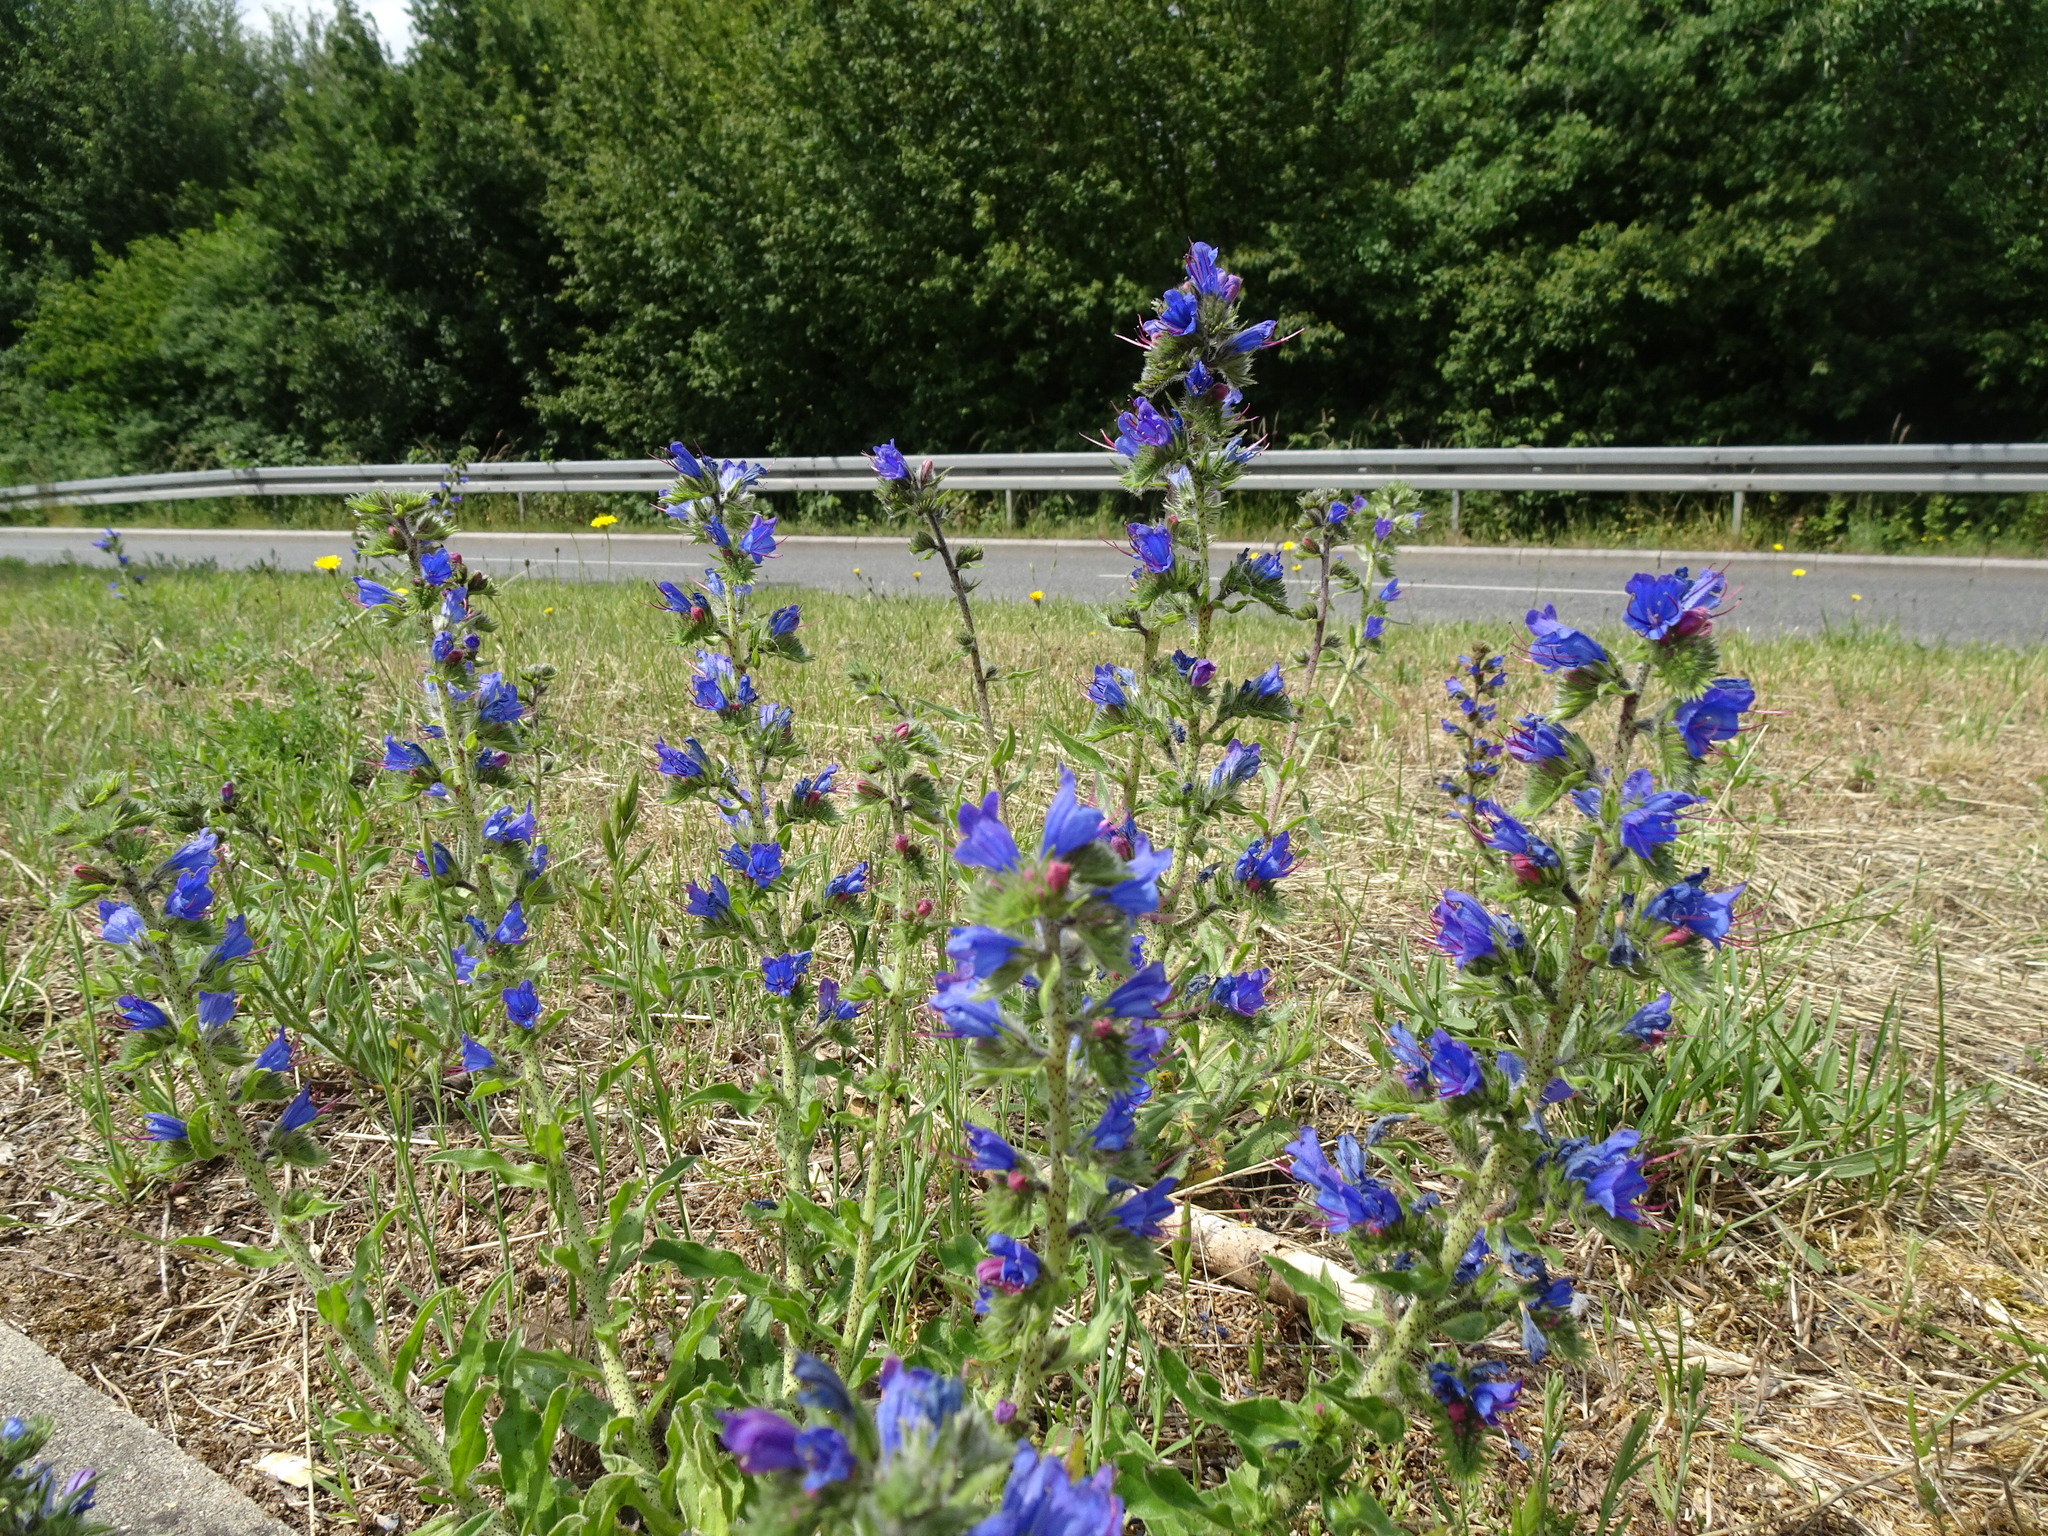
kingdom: Plantae
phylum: Tracheophyta
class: Magnoliopsida
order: Boraginales
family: Boraginaceae
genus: Echium
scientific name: Echium vulgare
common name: Common viper's bugloss
